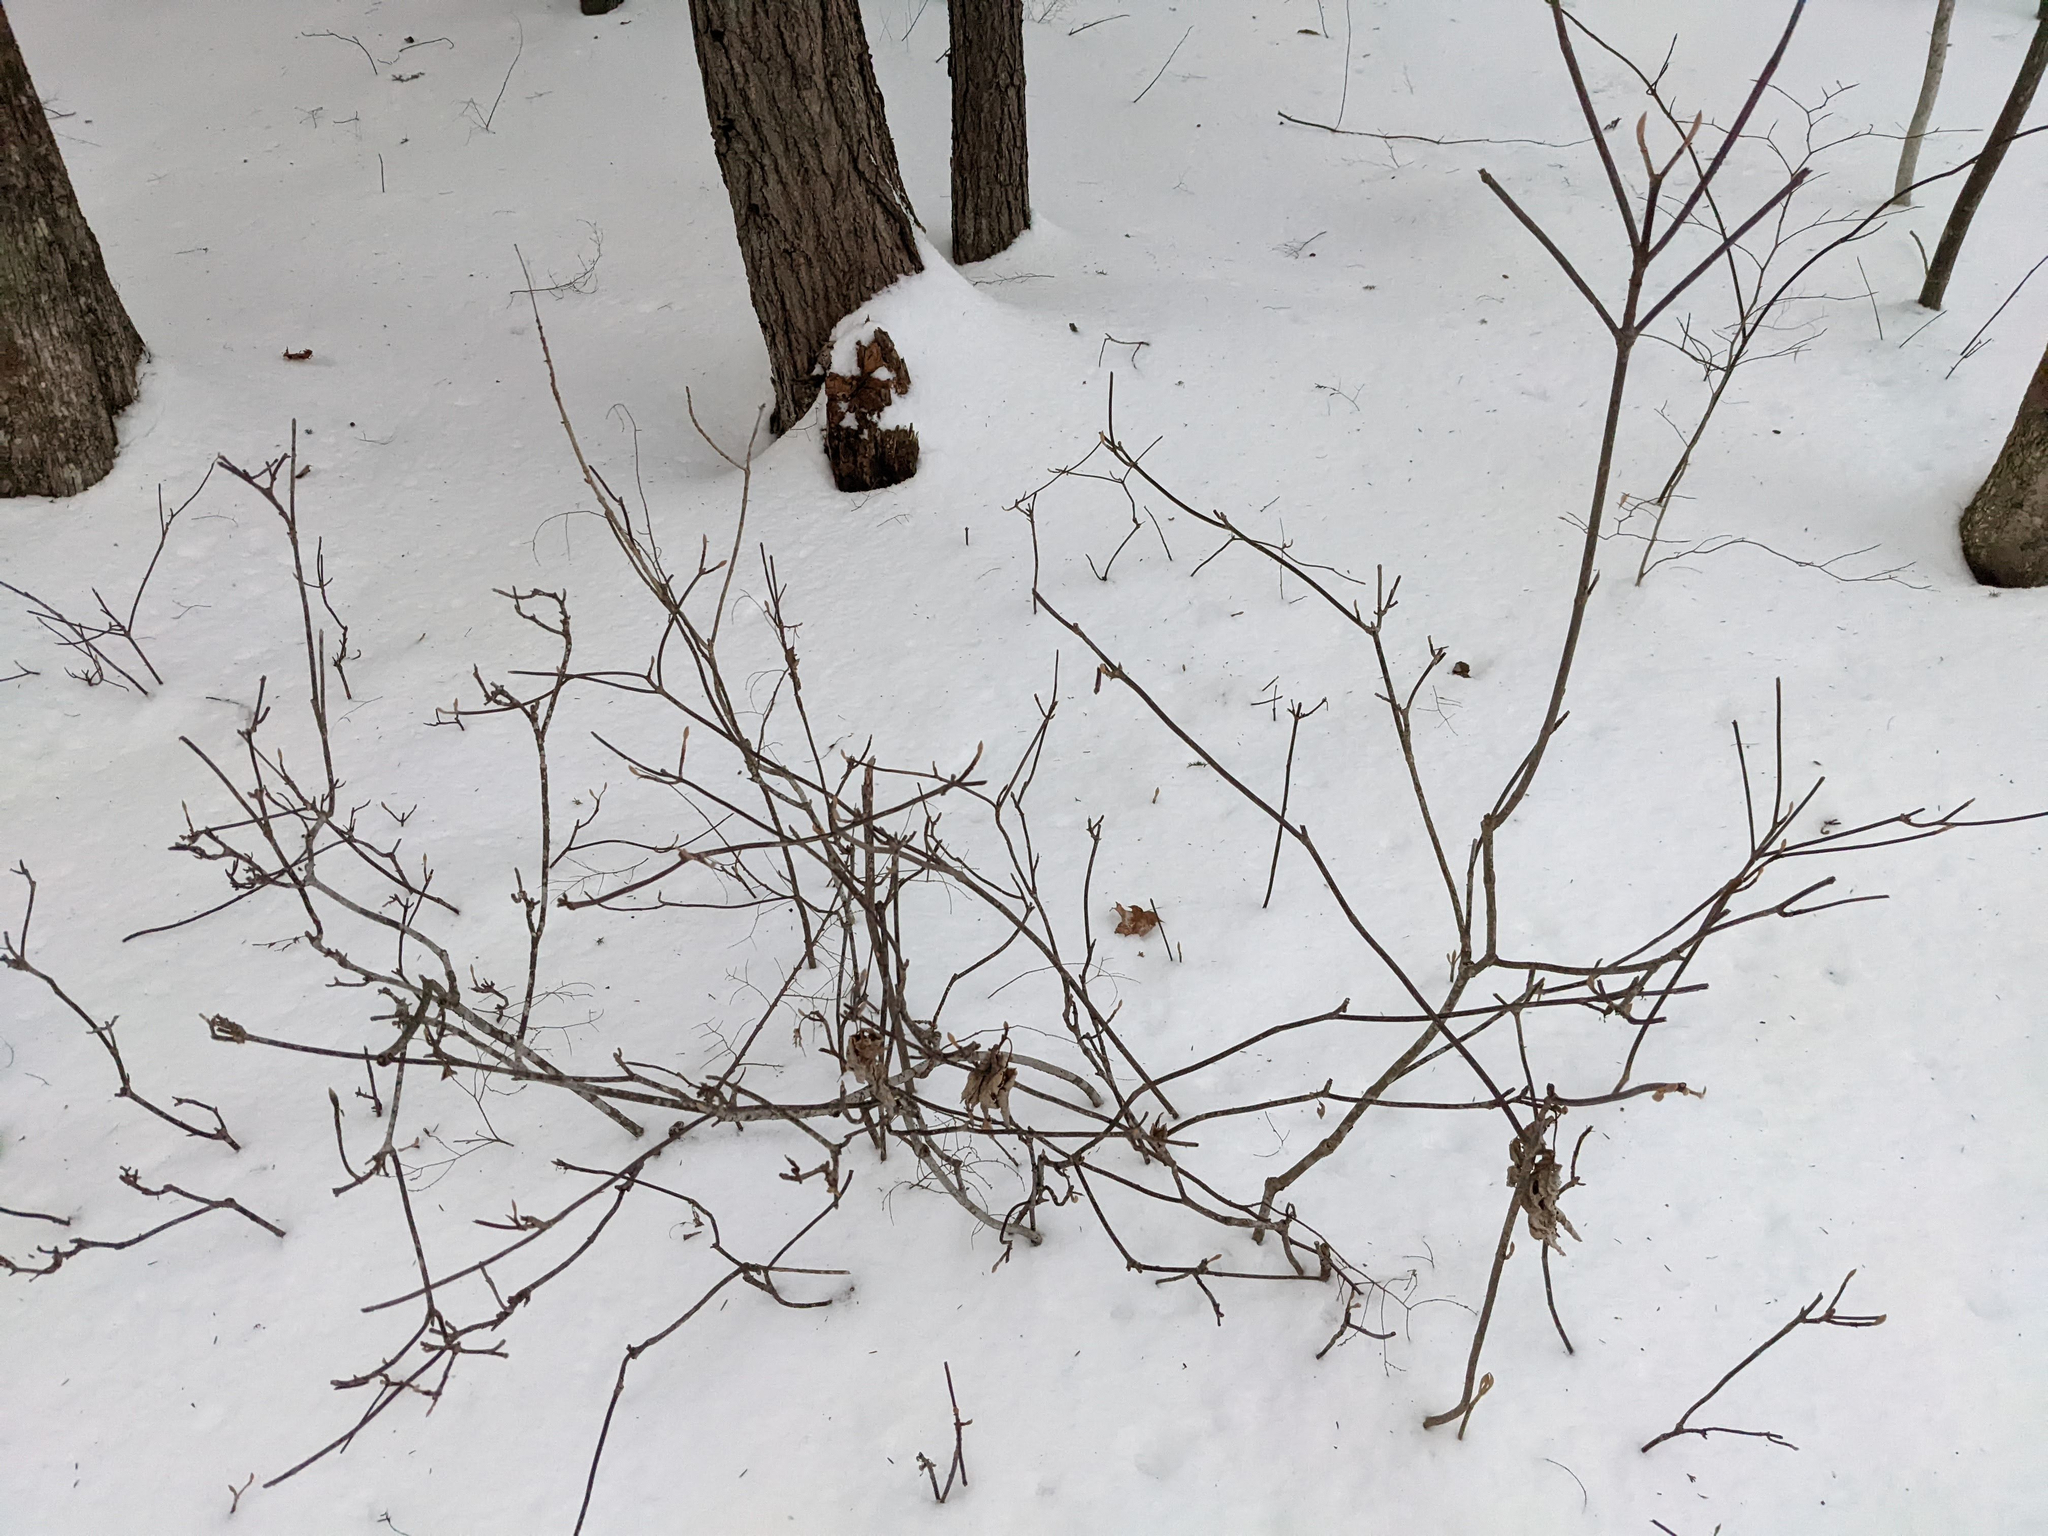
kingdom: Plantae
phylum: Tracheophyta
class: Magnoliopsida
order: Dipsacales
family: Viburnaceae
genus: Viburnum
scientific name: Viburnum lantanoides
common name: Hobblebush
